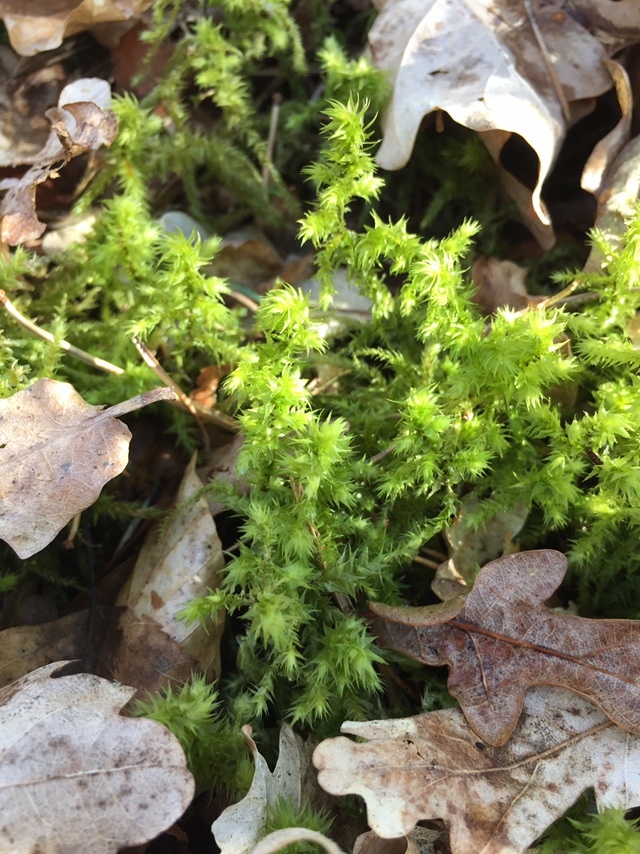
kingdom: Plantae
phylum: Bryophyta
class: Bryopsida
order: Hypnales
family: Hylocomiaceae
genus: Hylocomiadelphus
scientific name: Hylocomiadelphus triquetrus
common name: Rough goose neck moss
